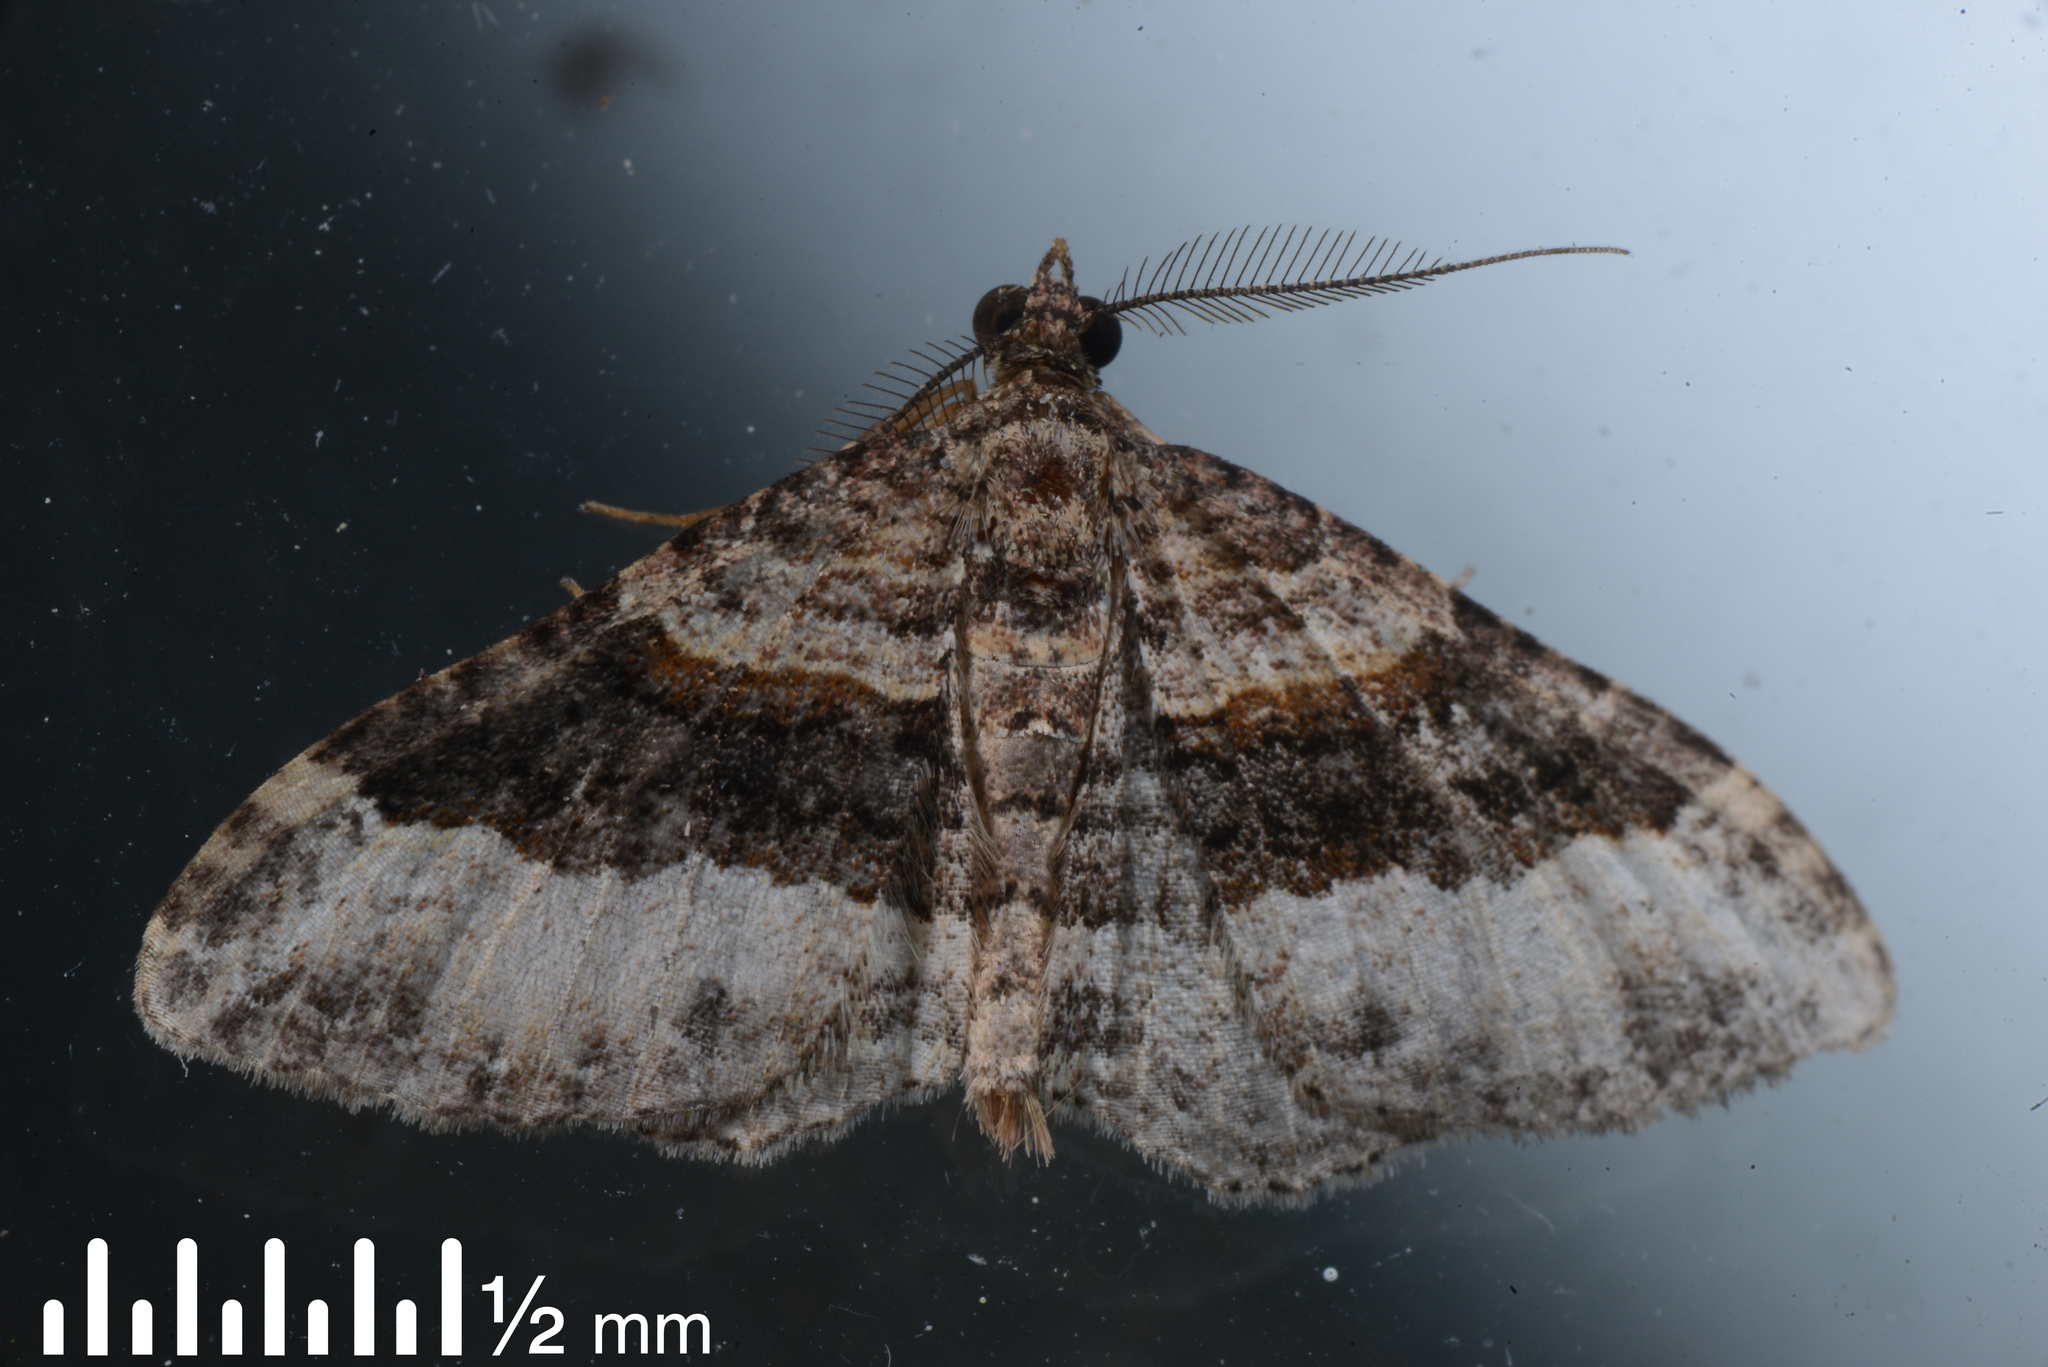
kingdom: Animalia
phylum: Arthropoda
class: Insecta
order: Lepidoptera
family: Geometridae
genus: Epyaxa
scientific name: Epyaxa lucidata
